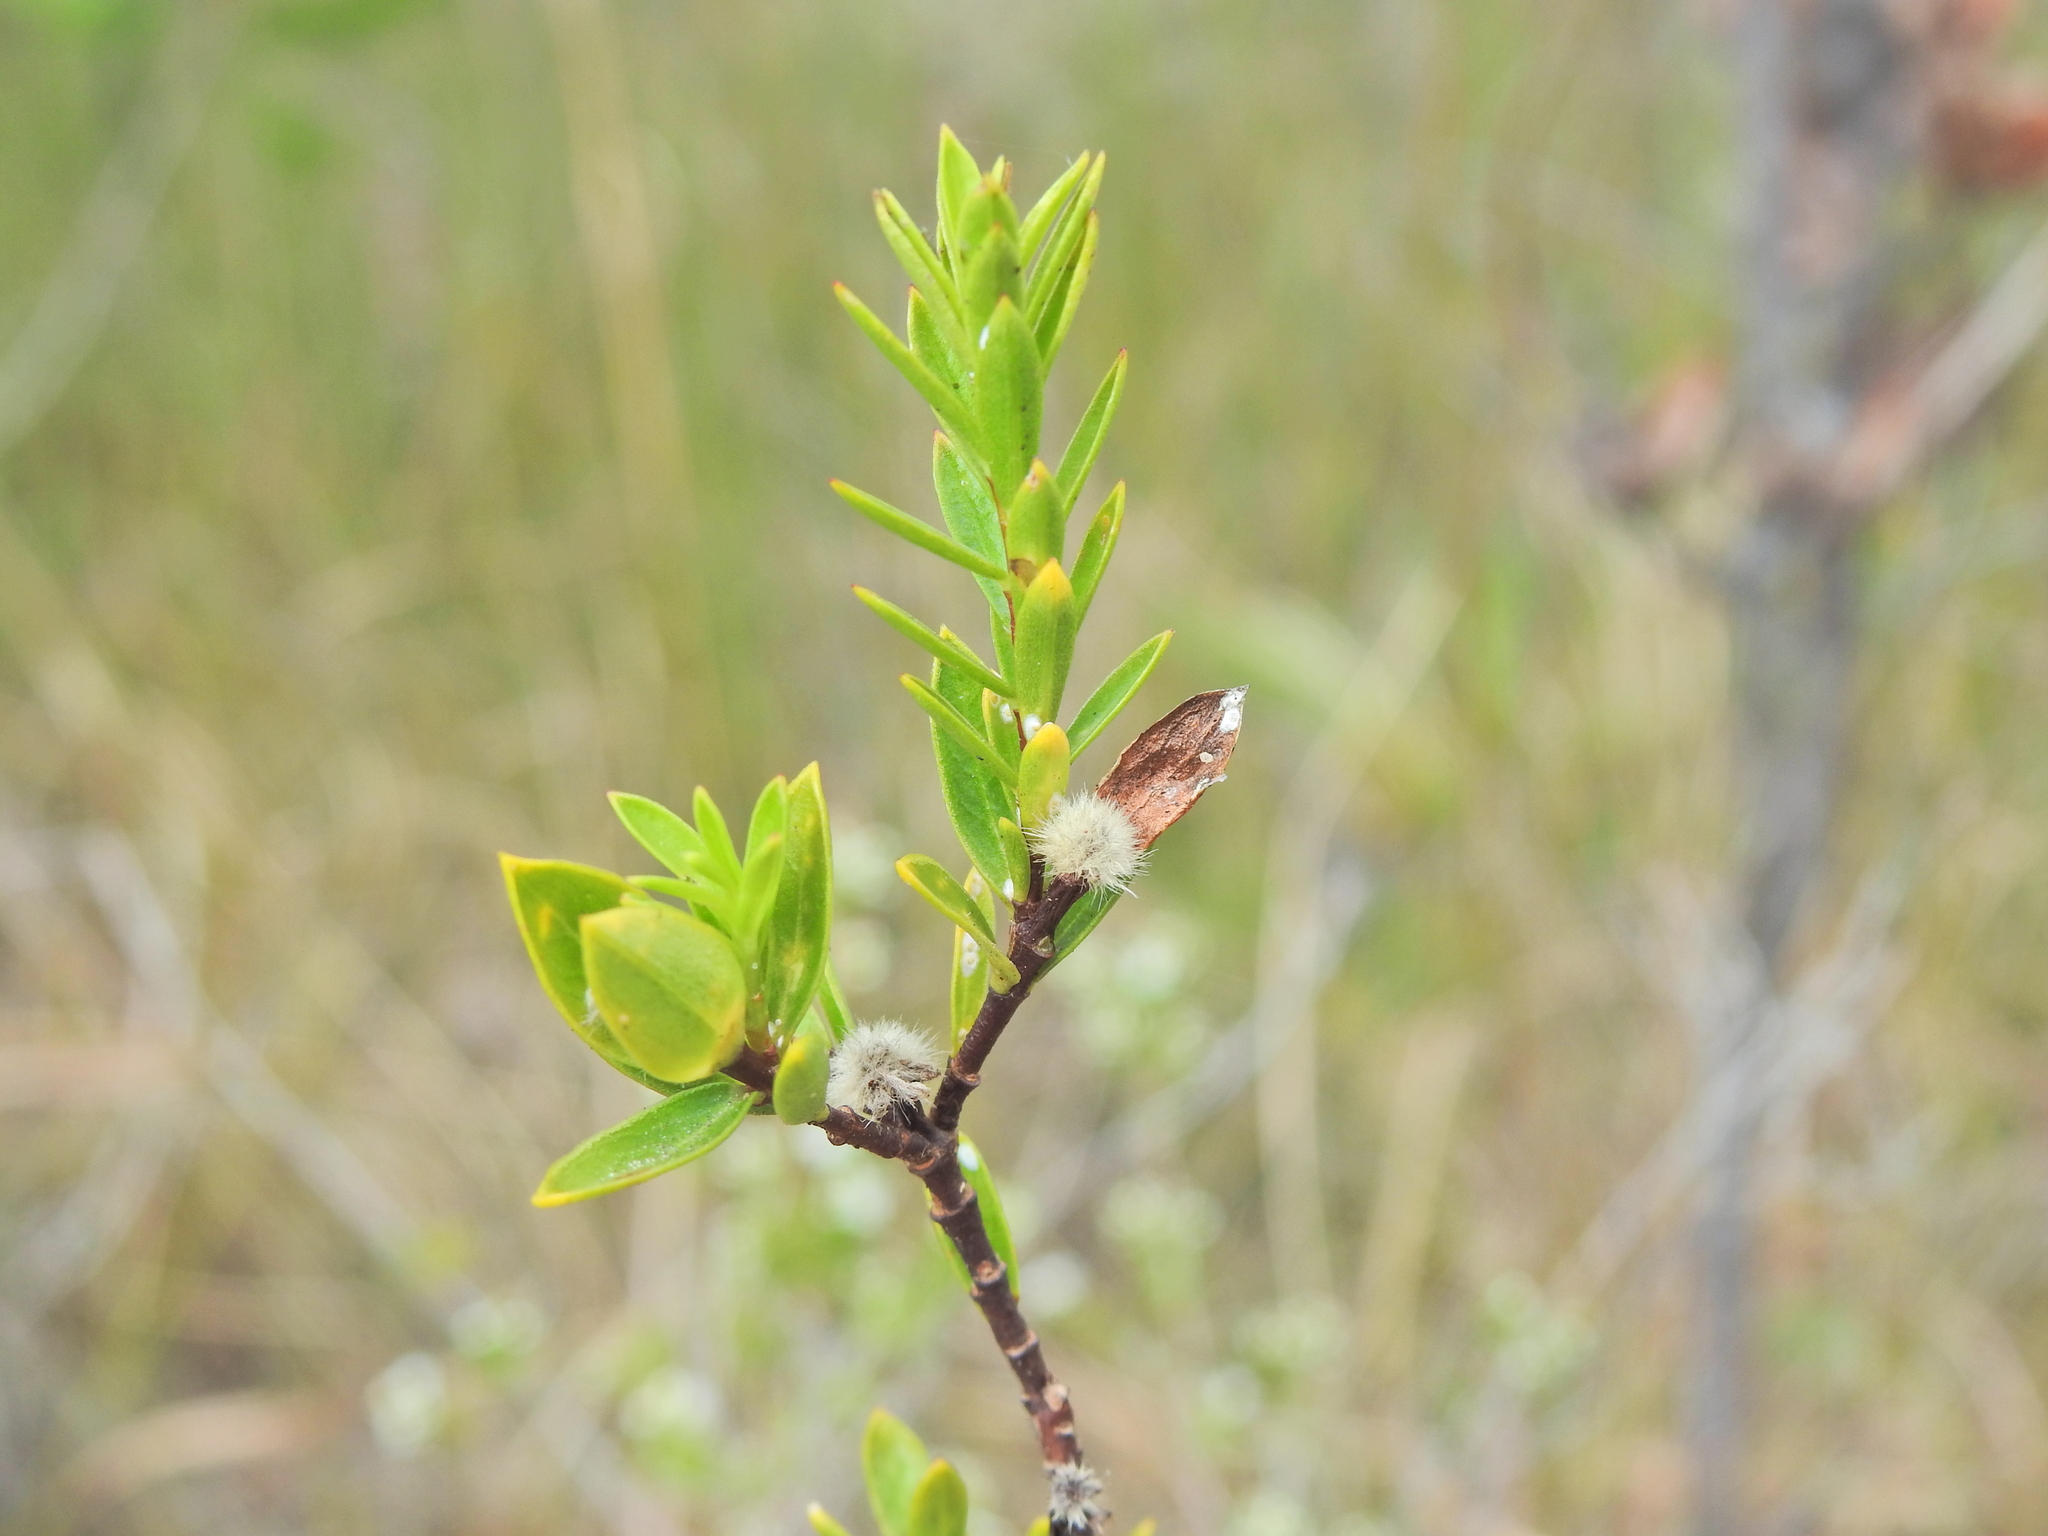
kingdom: Plantae
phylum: Tracheophyta
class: Magnoliopsida
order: Malvales
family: Thymelaeaceae
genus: Pimelea
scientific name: Pimelea linifolia
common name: Queen-of-the-bush
